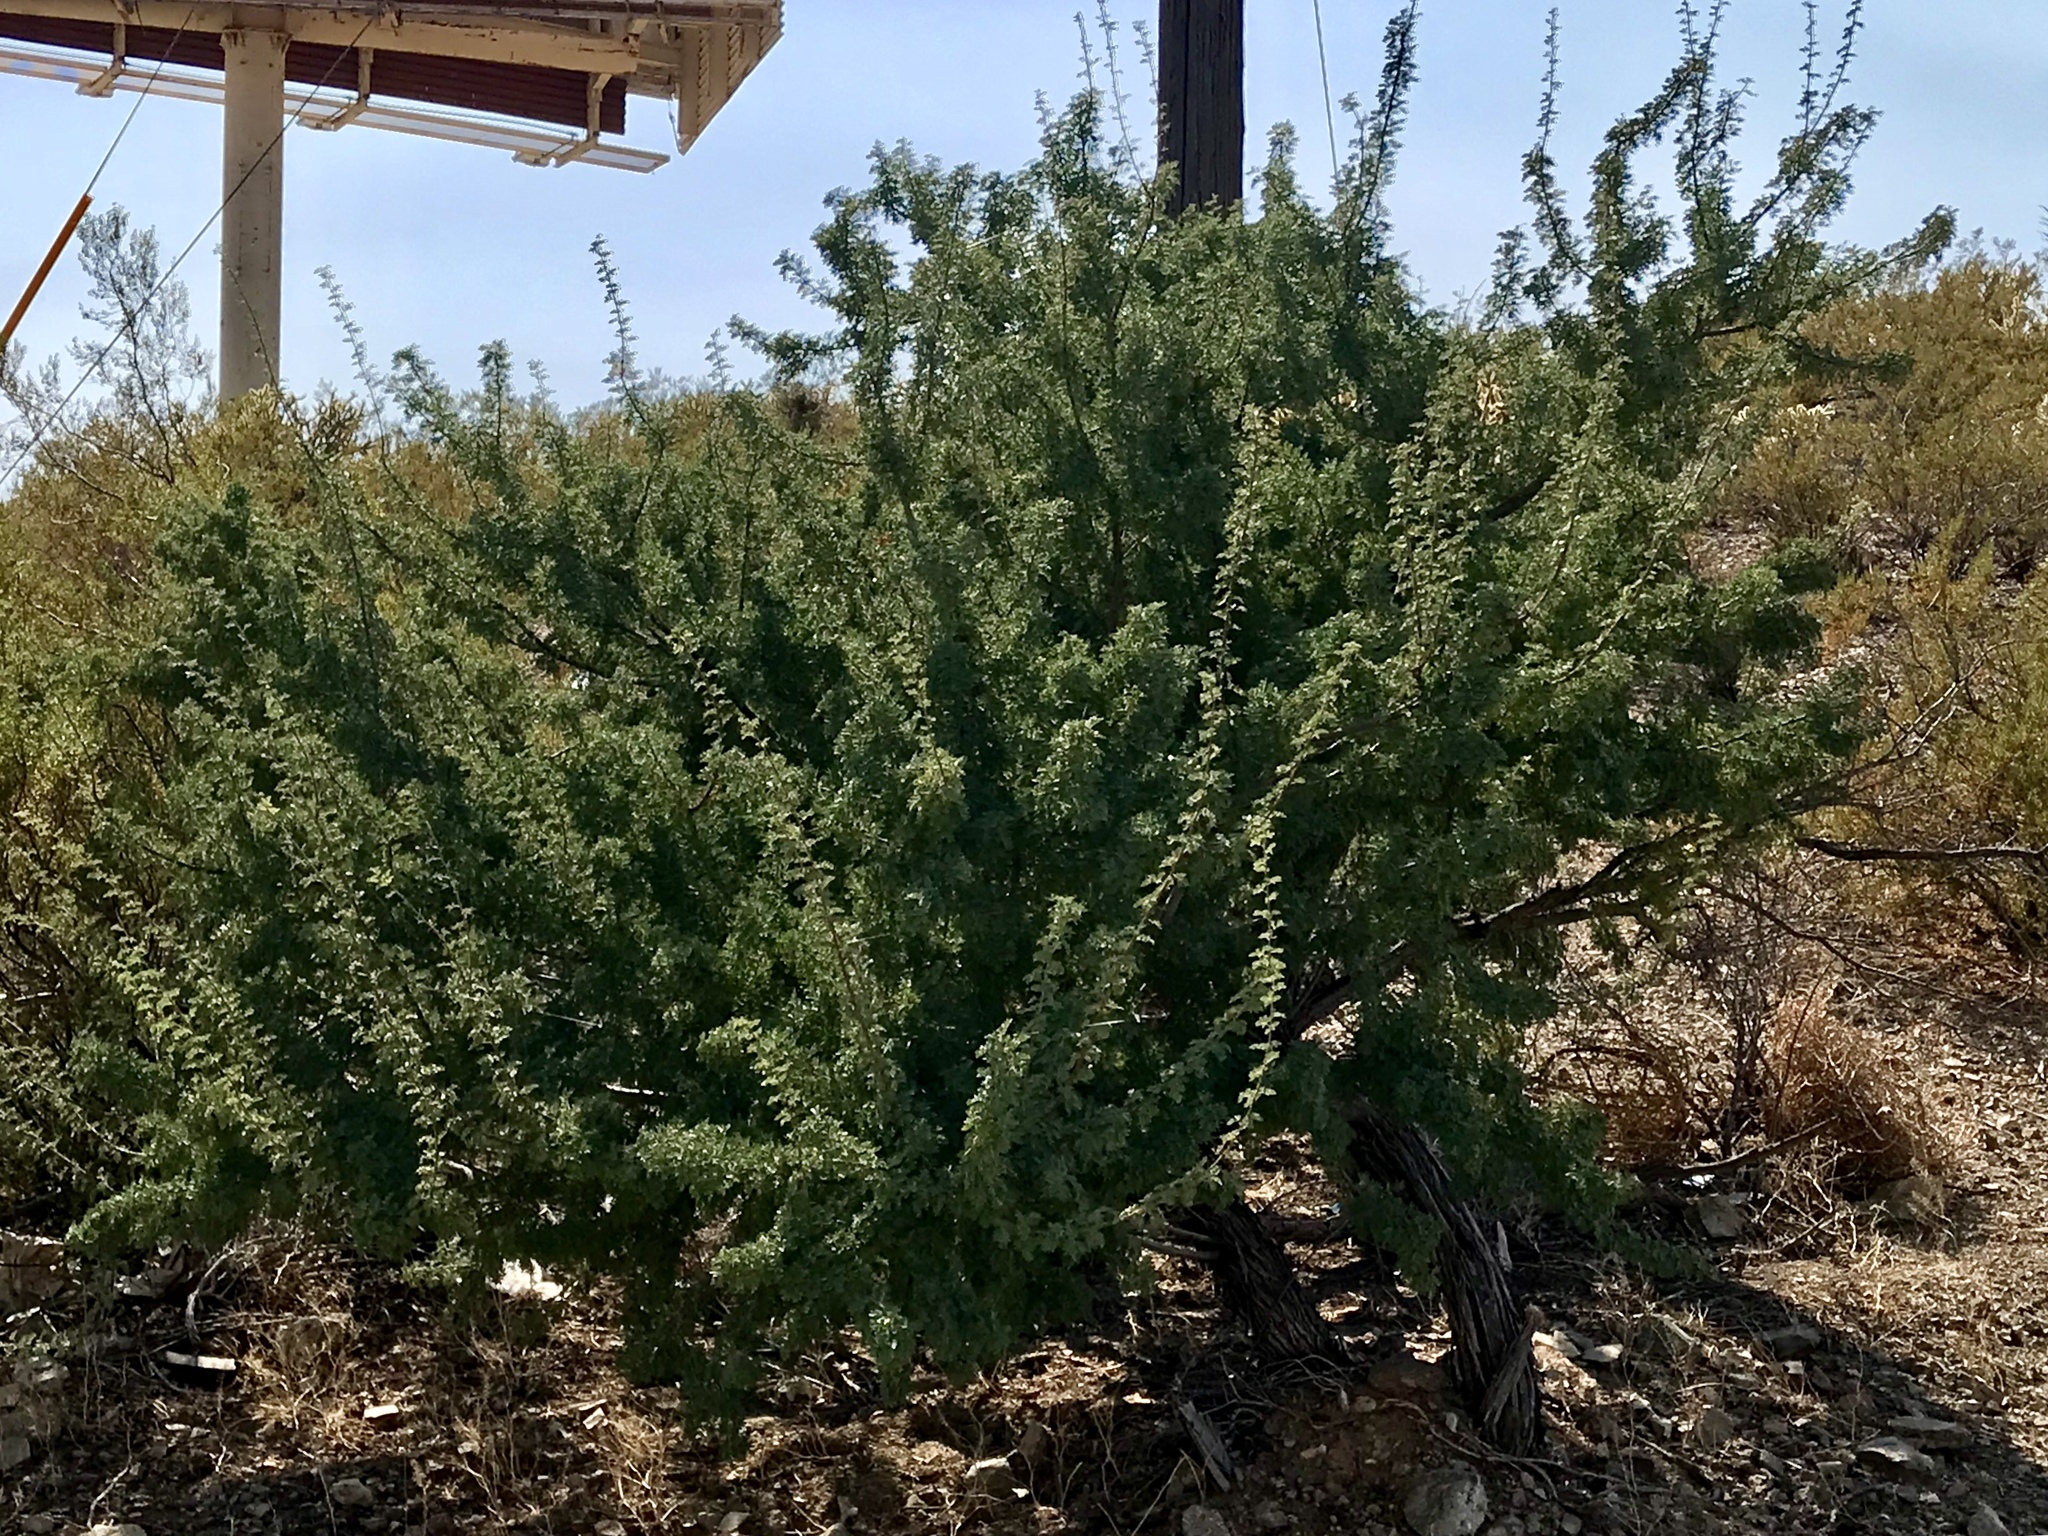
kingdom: Plantae
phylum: Tracheophyta
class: Magnoliopsida
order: Fabales
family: Fabaceae
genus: Senegalia
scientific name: Senegalia greggii
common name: Texas-mimosa
